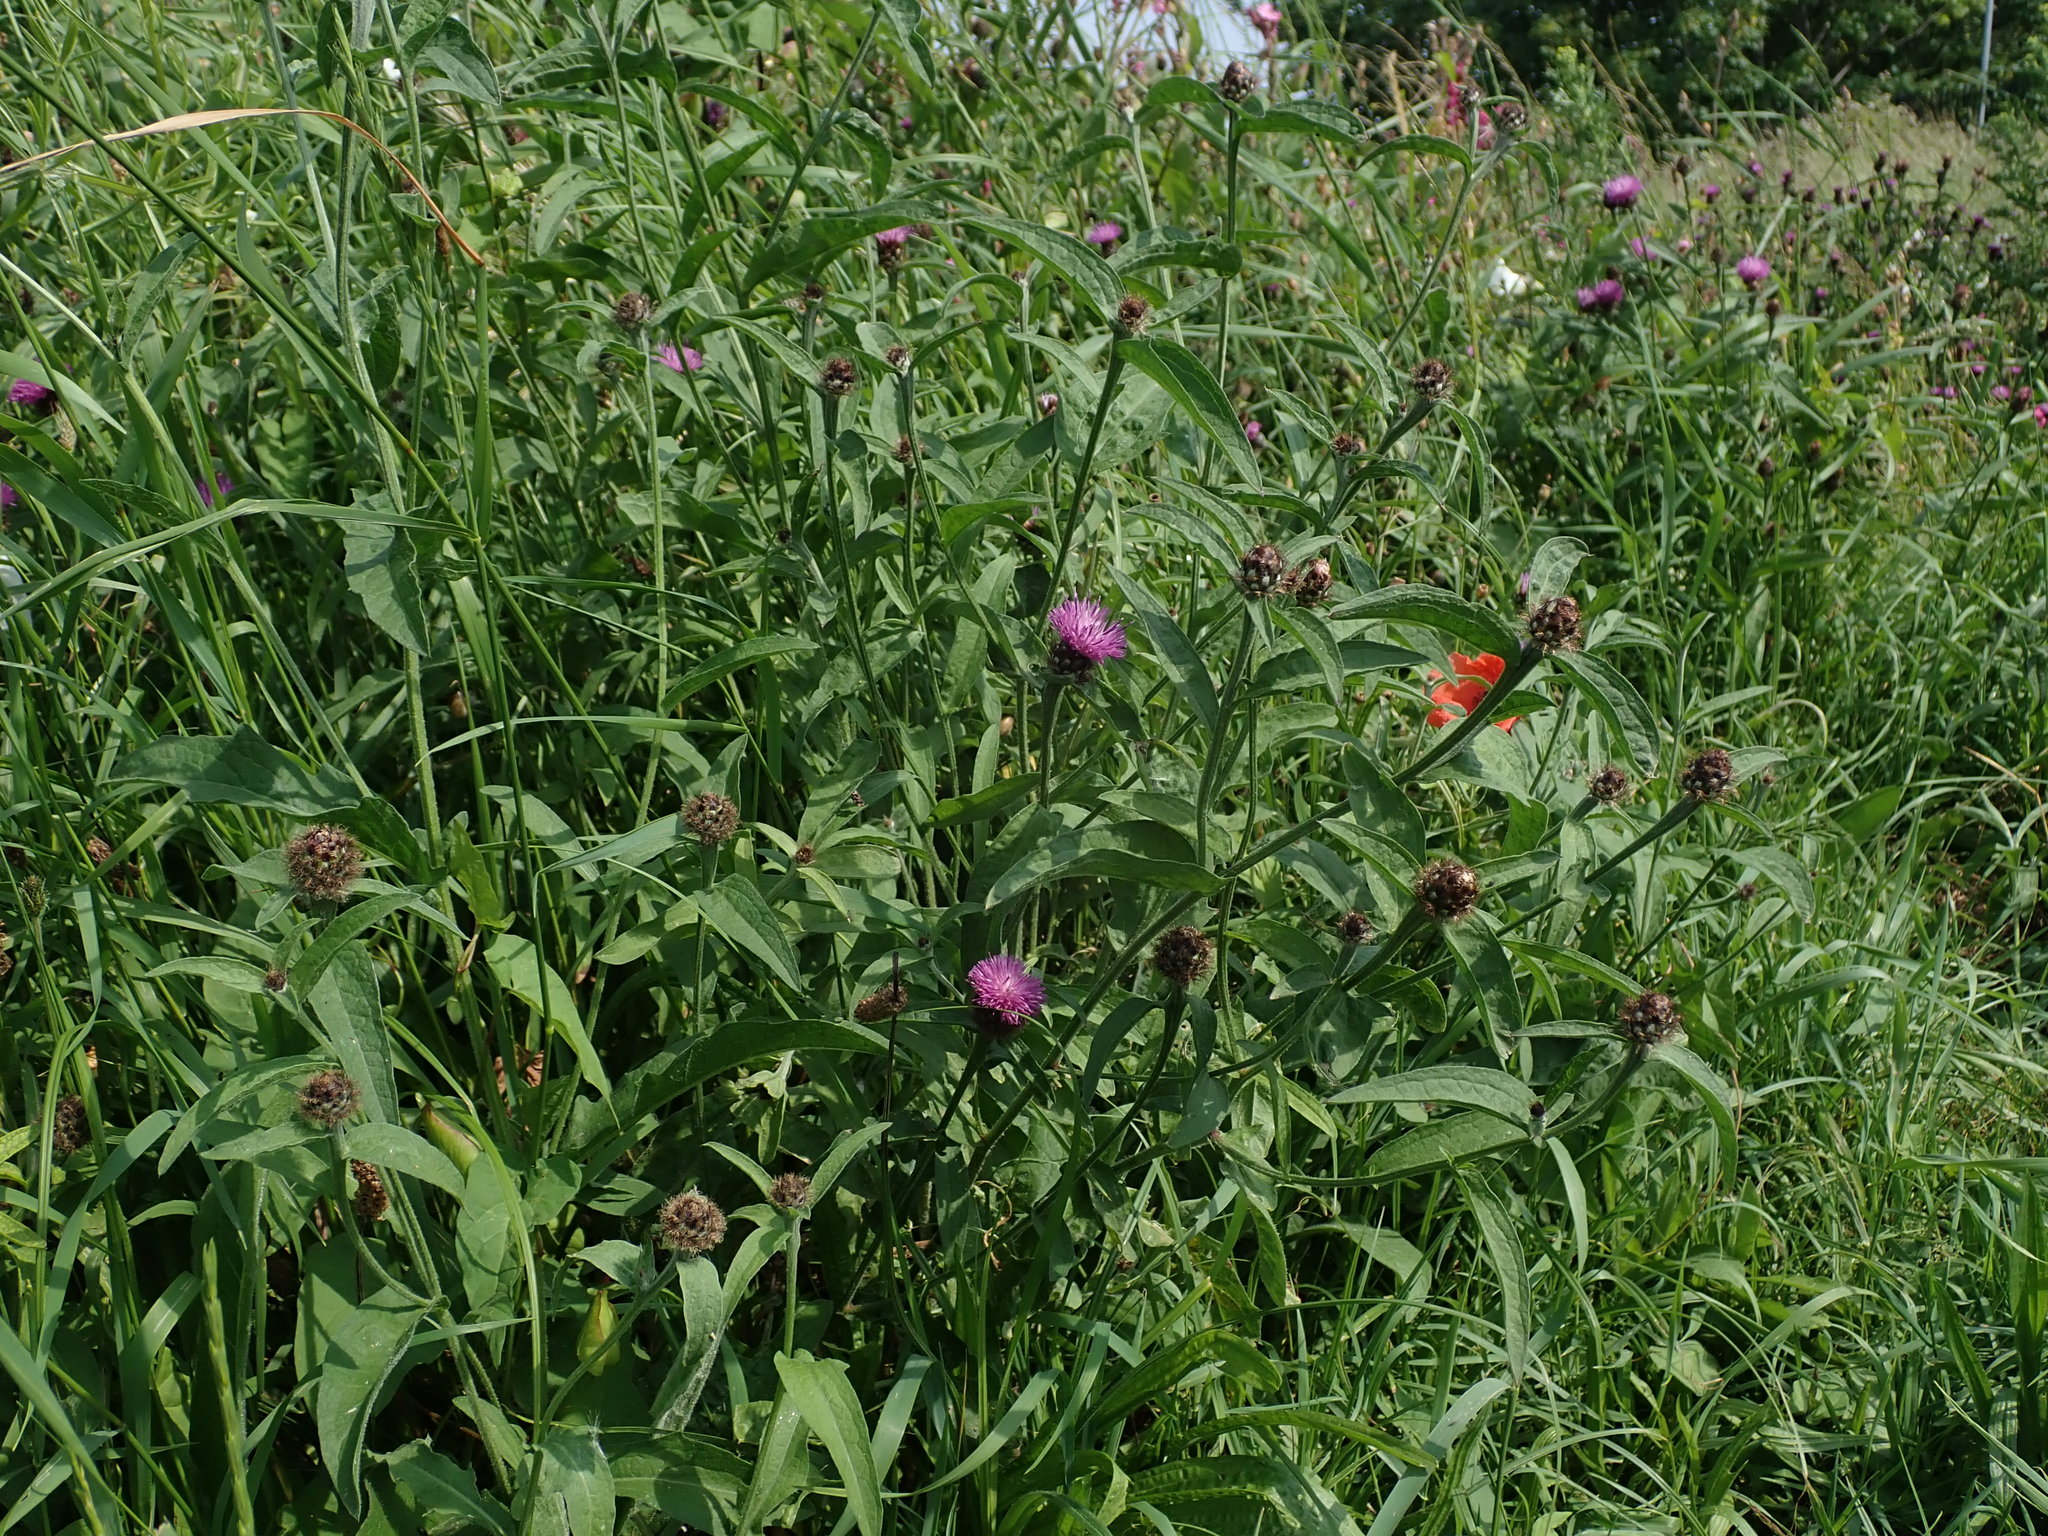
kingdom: Plantae
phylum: Tracheophyta
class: Magnoliopsida
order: Asterales
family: Asteraceae
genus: Centaurea
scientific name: Centaurea nigra
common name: Lesser knapweed
